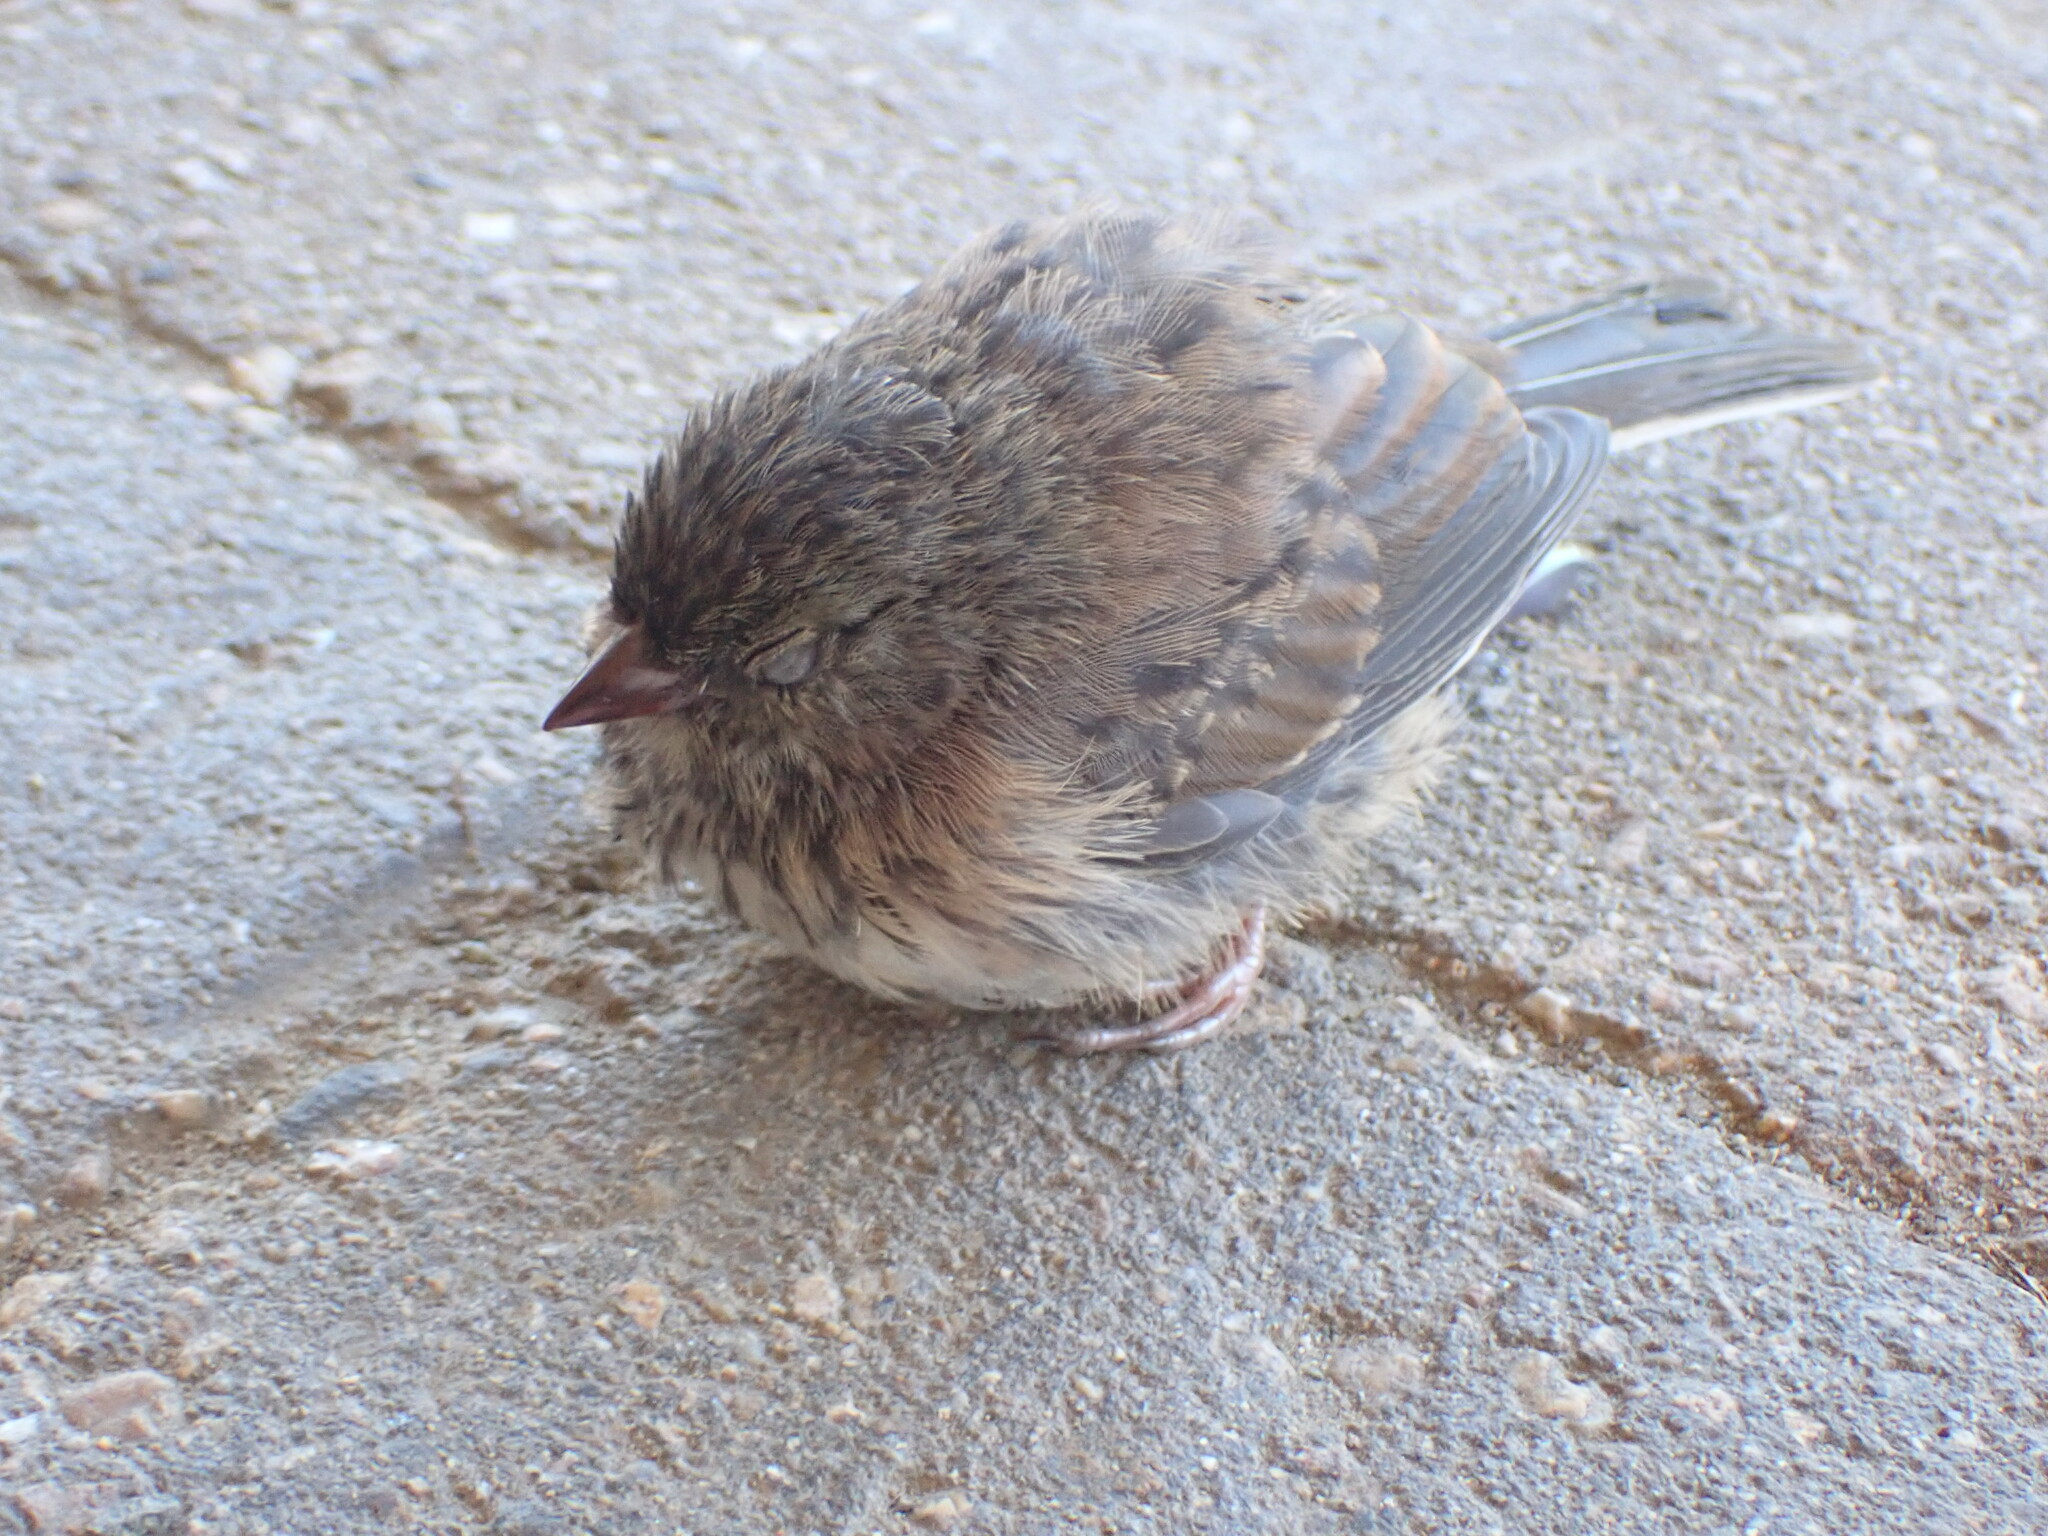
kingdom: Animalia
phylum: Chordata
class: Aves
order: Passeriformes
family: Passerellidae
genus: Junco
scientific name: Junco hyemalis
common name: Dark-eyed junco
